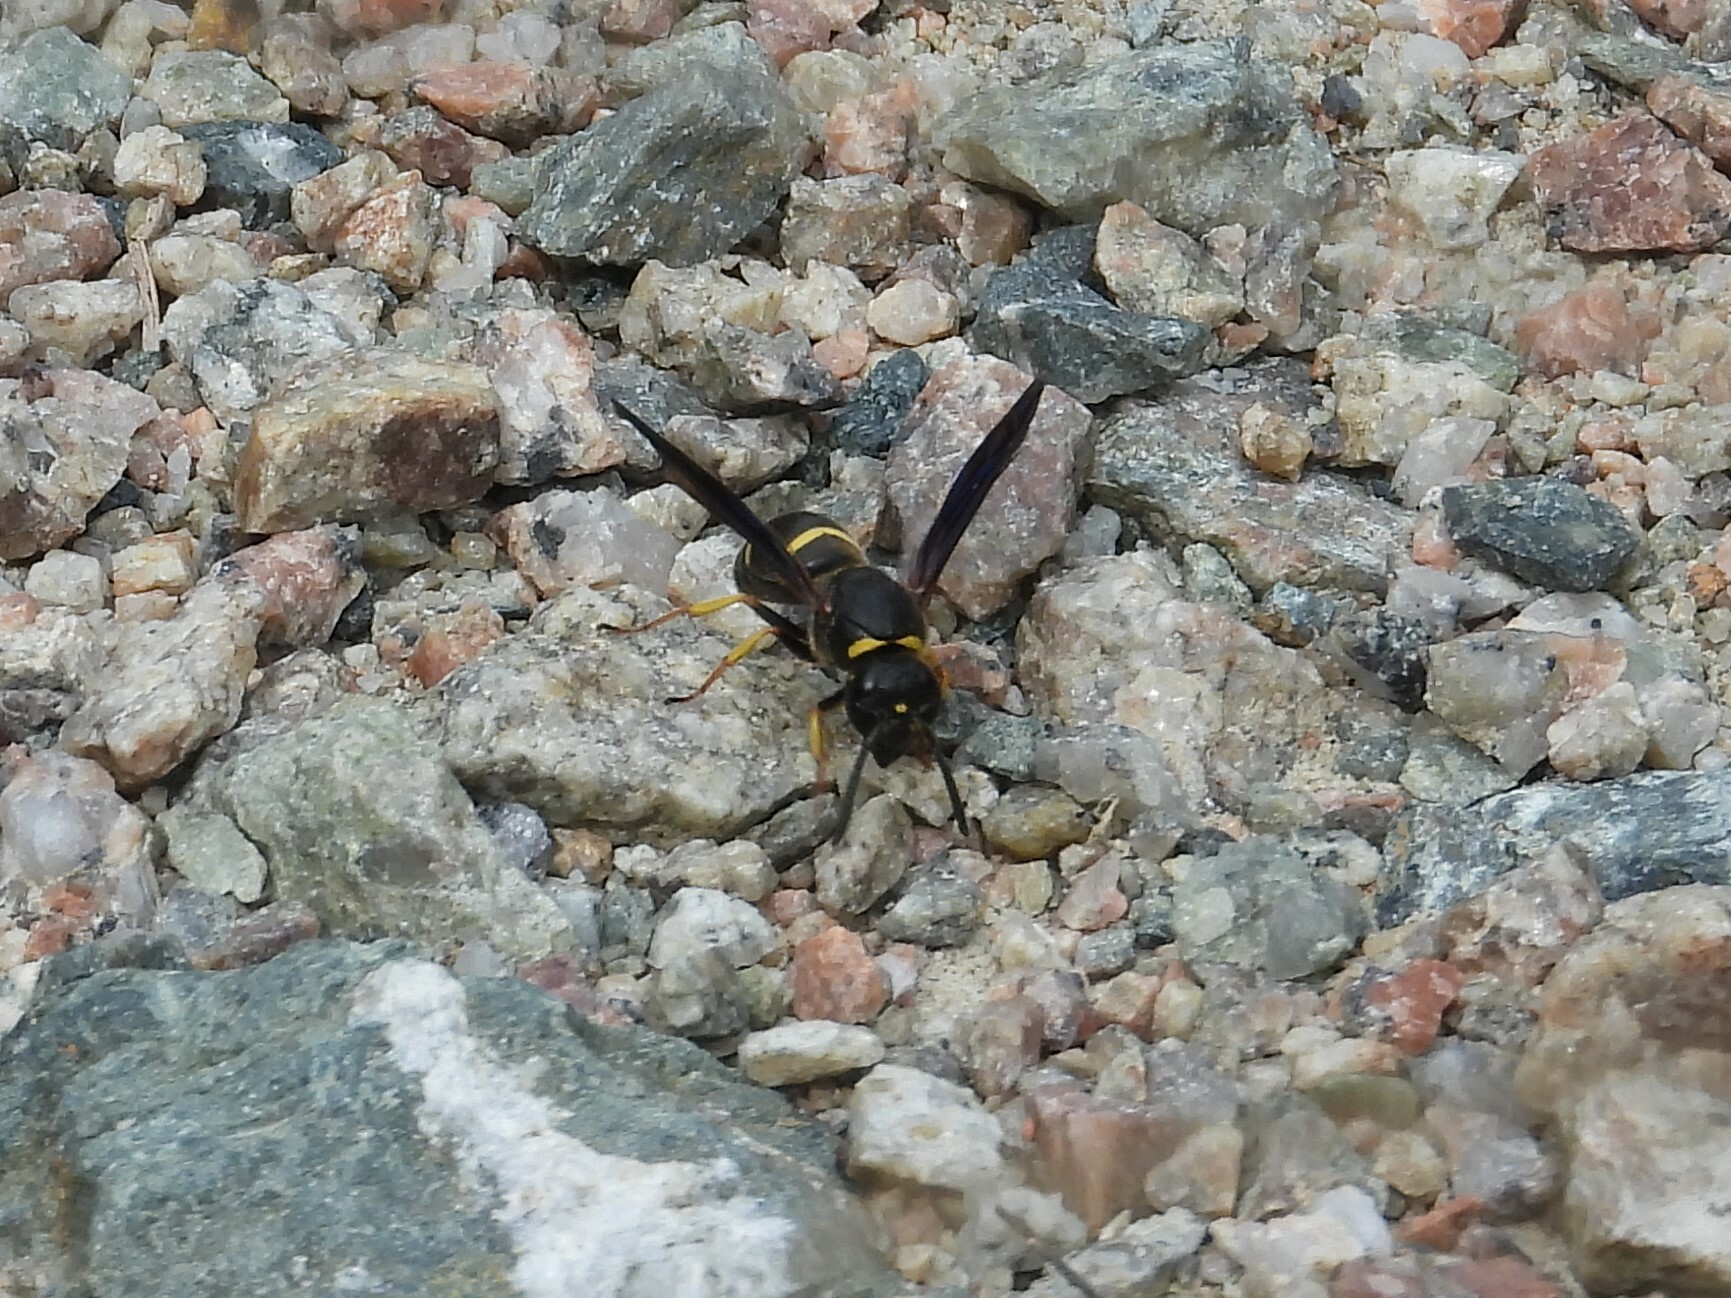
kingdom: Animalia
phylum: Arthropoda
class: Insecta
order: Hymenoptera
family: Eumenidae
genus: Euodynerus
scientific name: Euodynerus
